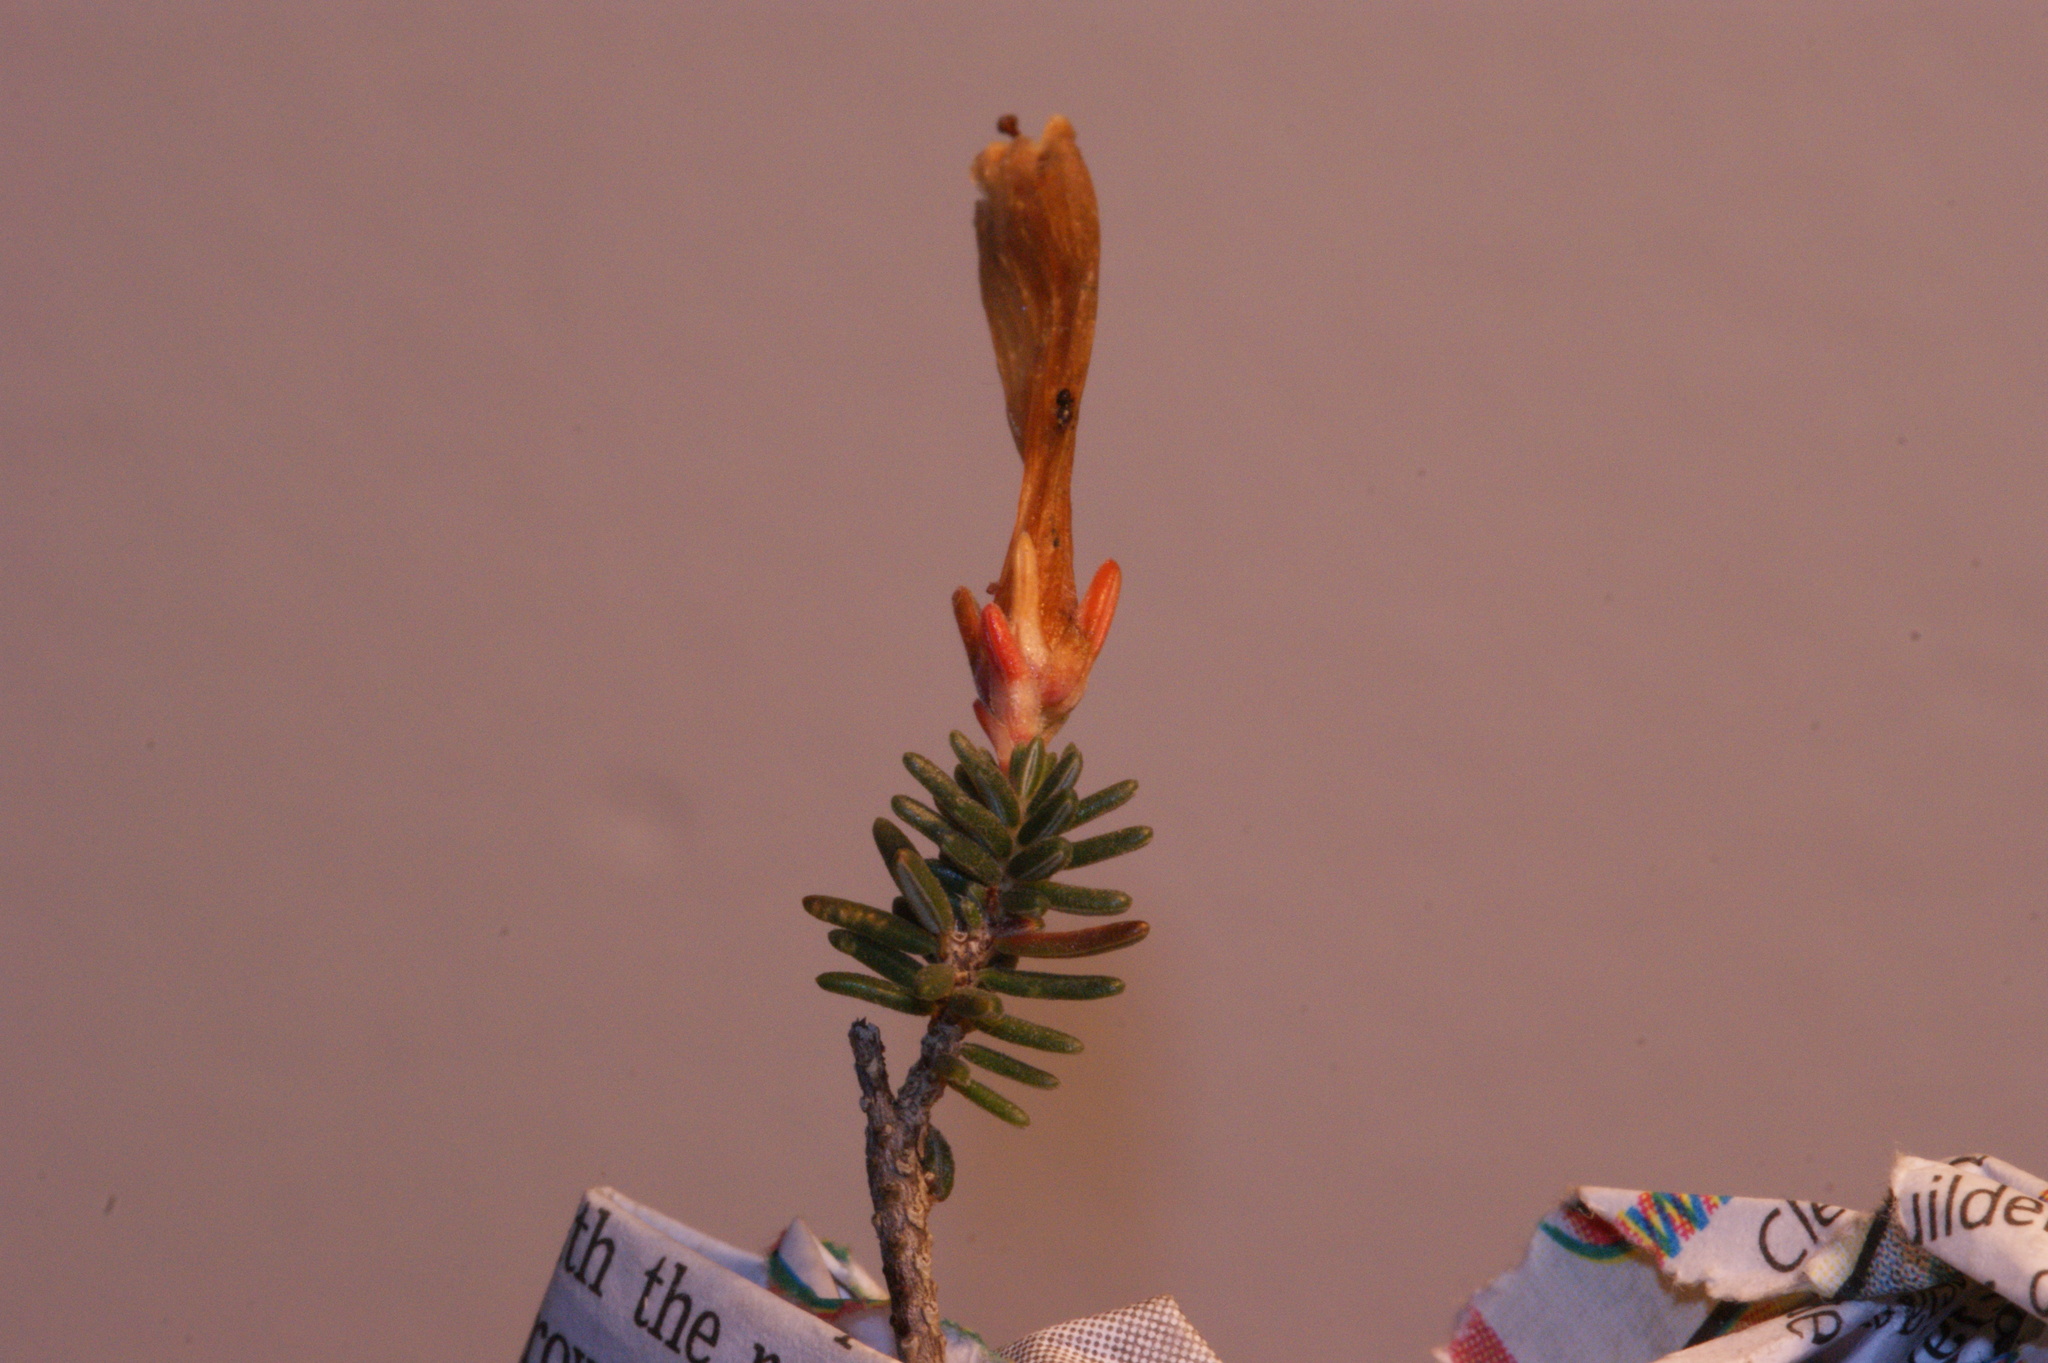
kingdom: Plantae
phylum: Tracheophyta
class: Magnoliopsida
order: Ericales
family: Ericaceae
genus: Erica
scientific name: Erica amidae
